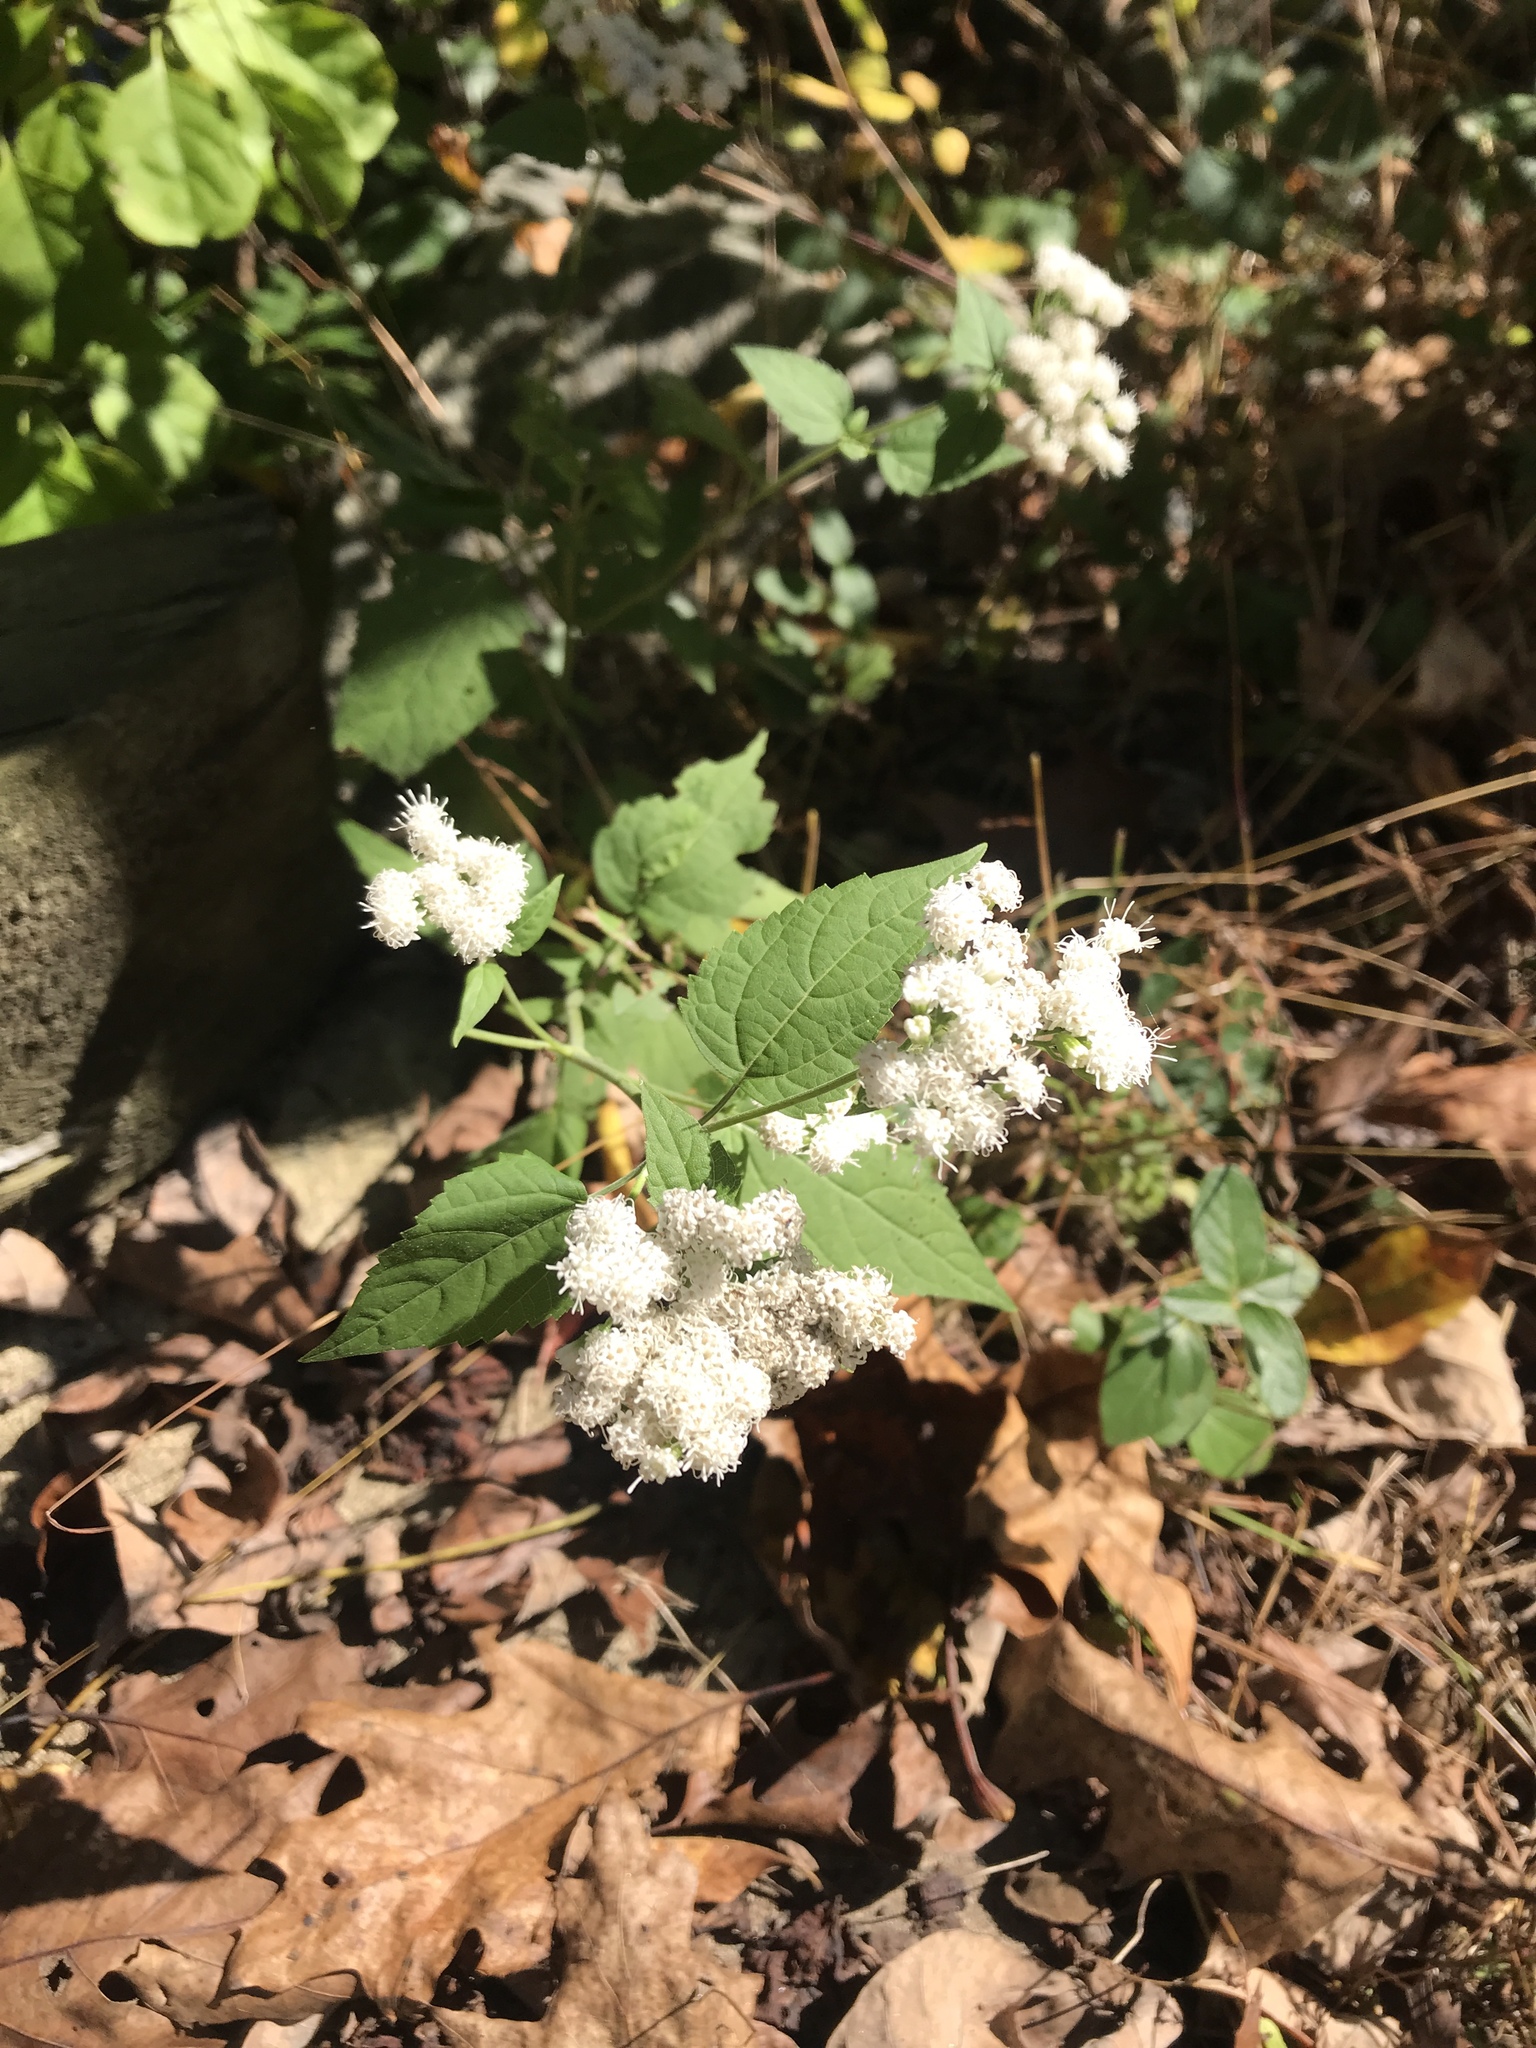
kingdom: Plantae
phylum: Tracheophyta
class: Magnoliopsida
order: Asterales
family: Asteraceae
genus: Ageratina
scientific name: Ageratina altissima
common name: White snakeroot
